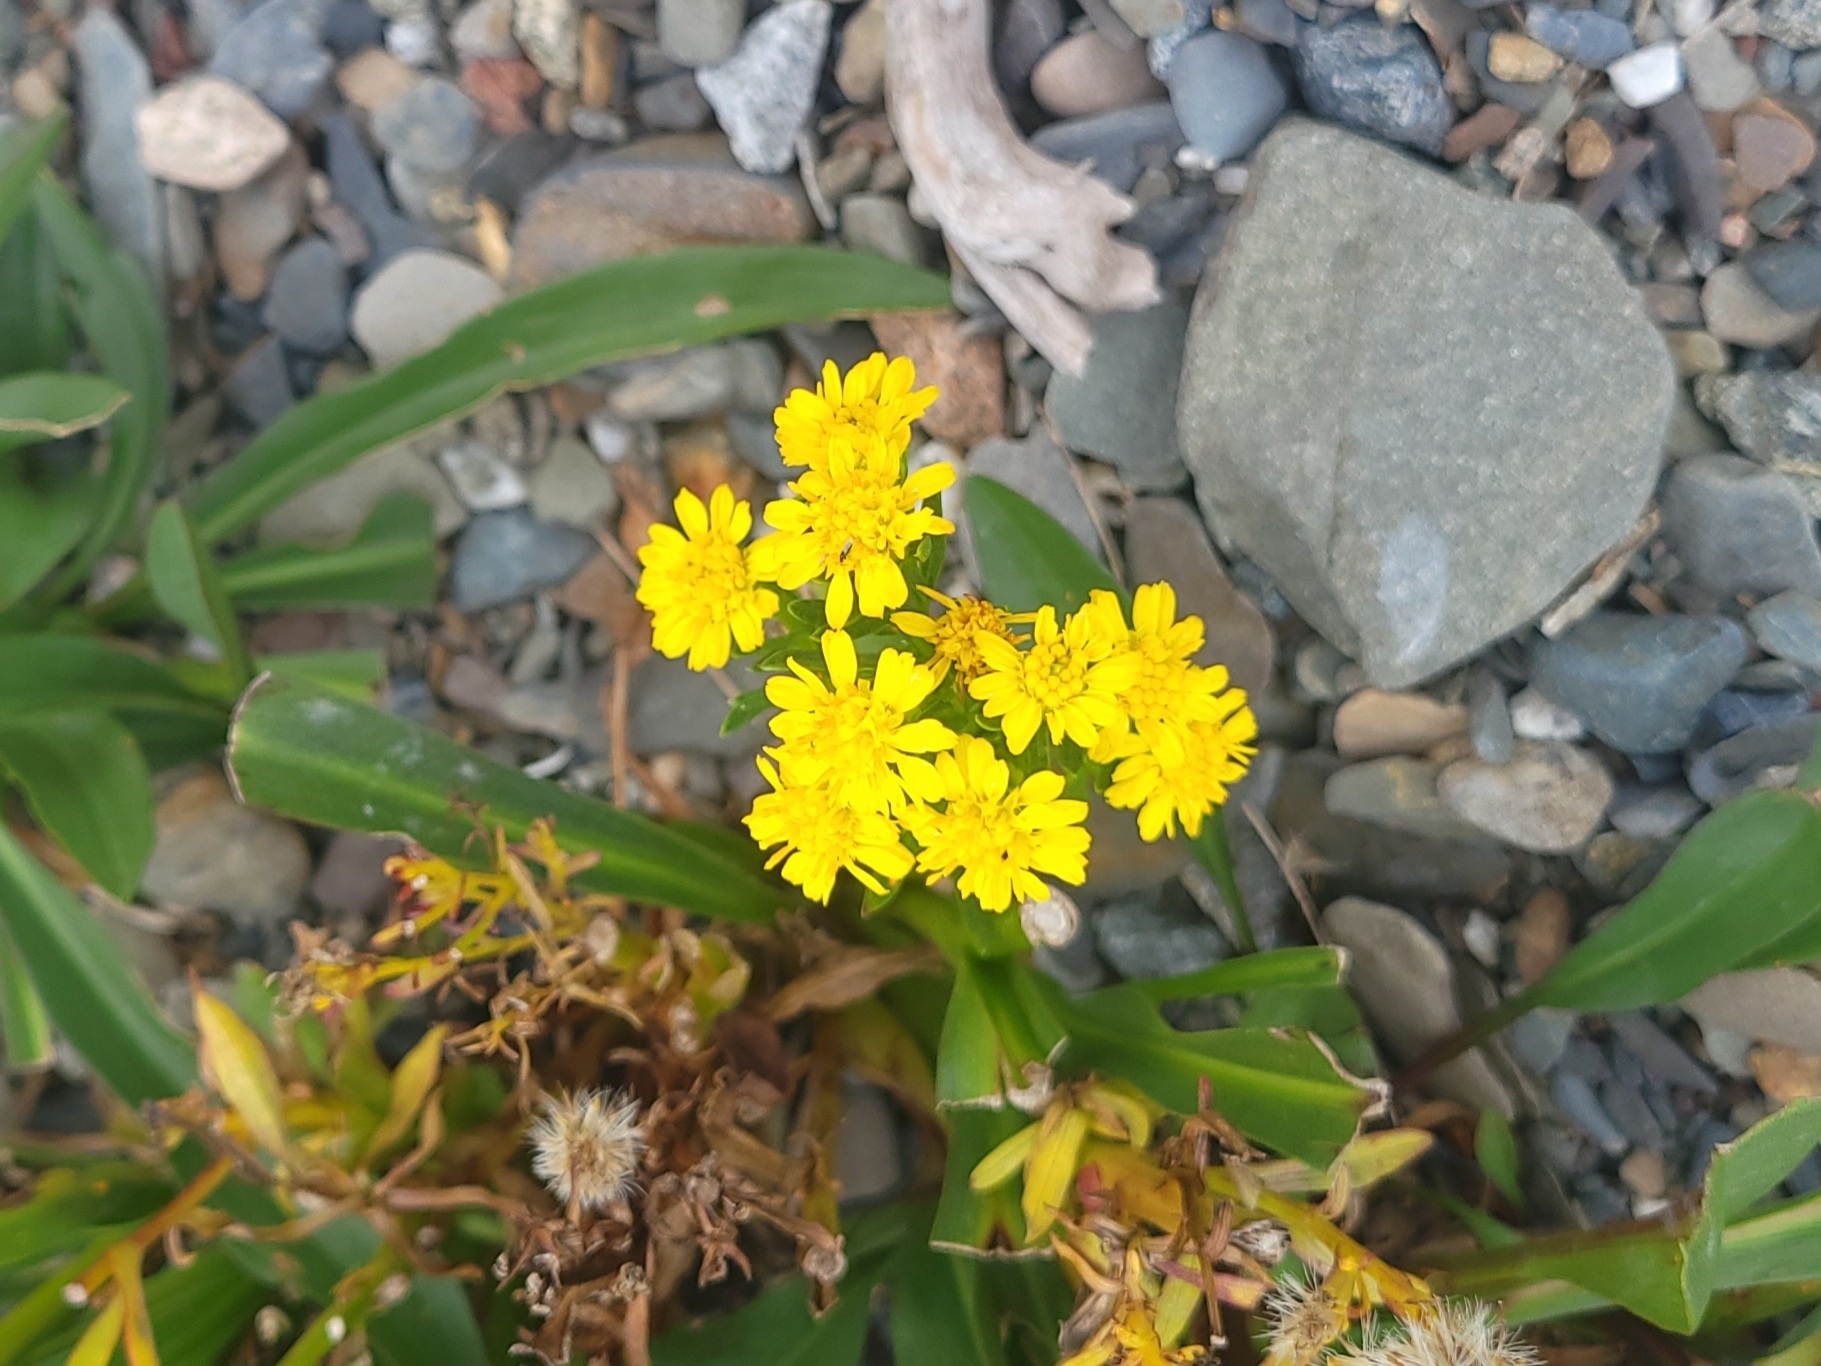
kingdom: Plantae
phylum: Tracheophyta
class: Magnoliopsida
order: Asterales
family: Asteraceae
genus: Solidago
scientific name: Solidago sempervirens
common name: Salt-marsh goldenrod
